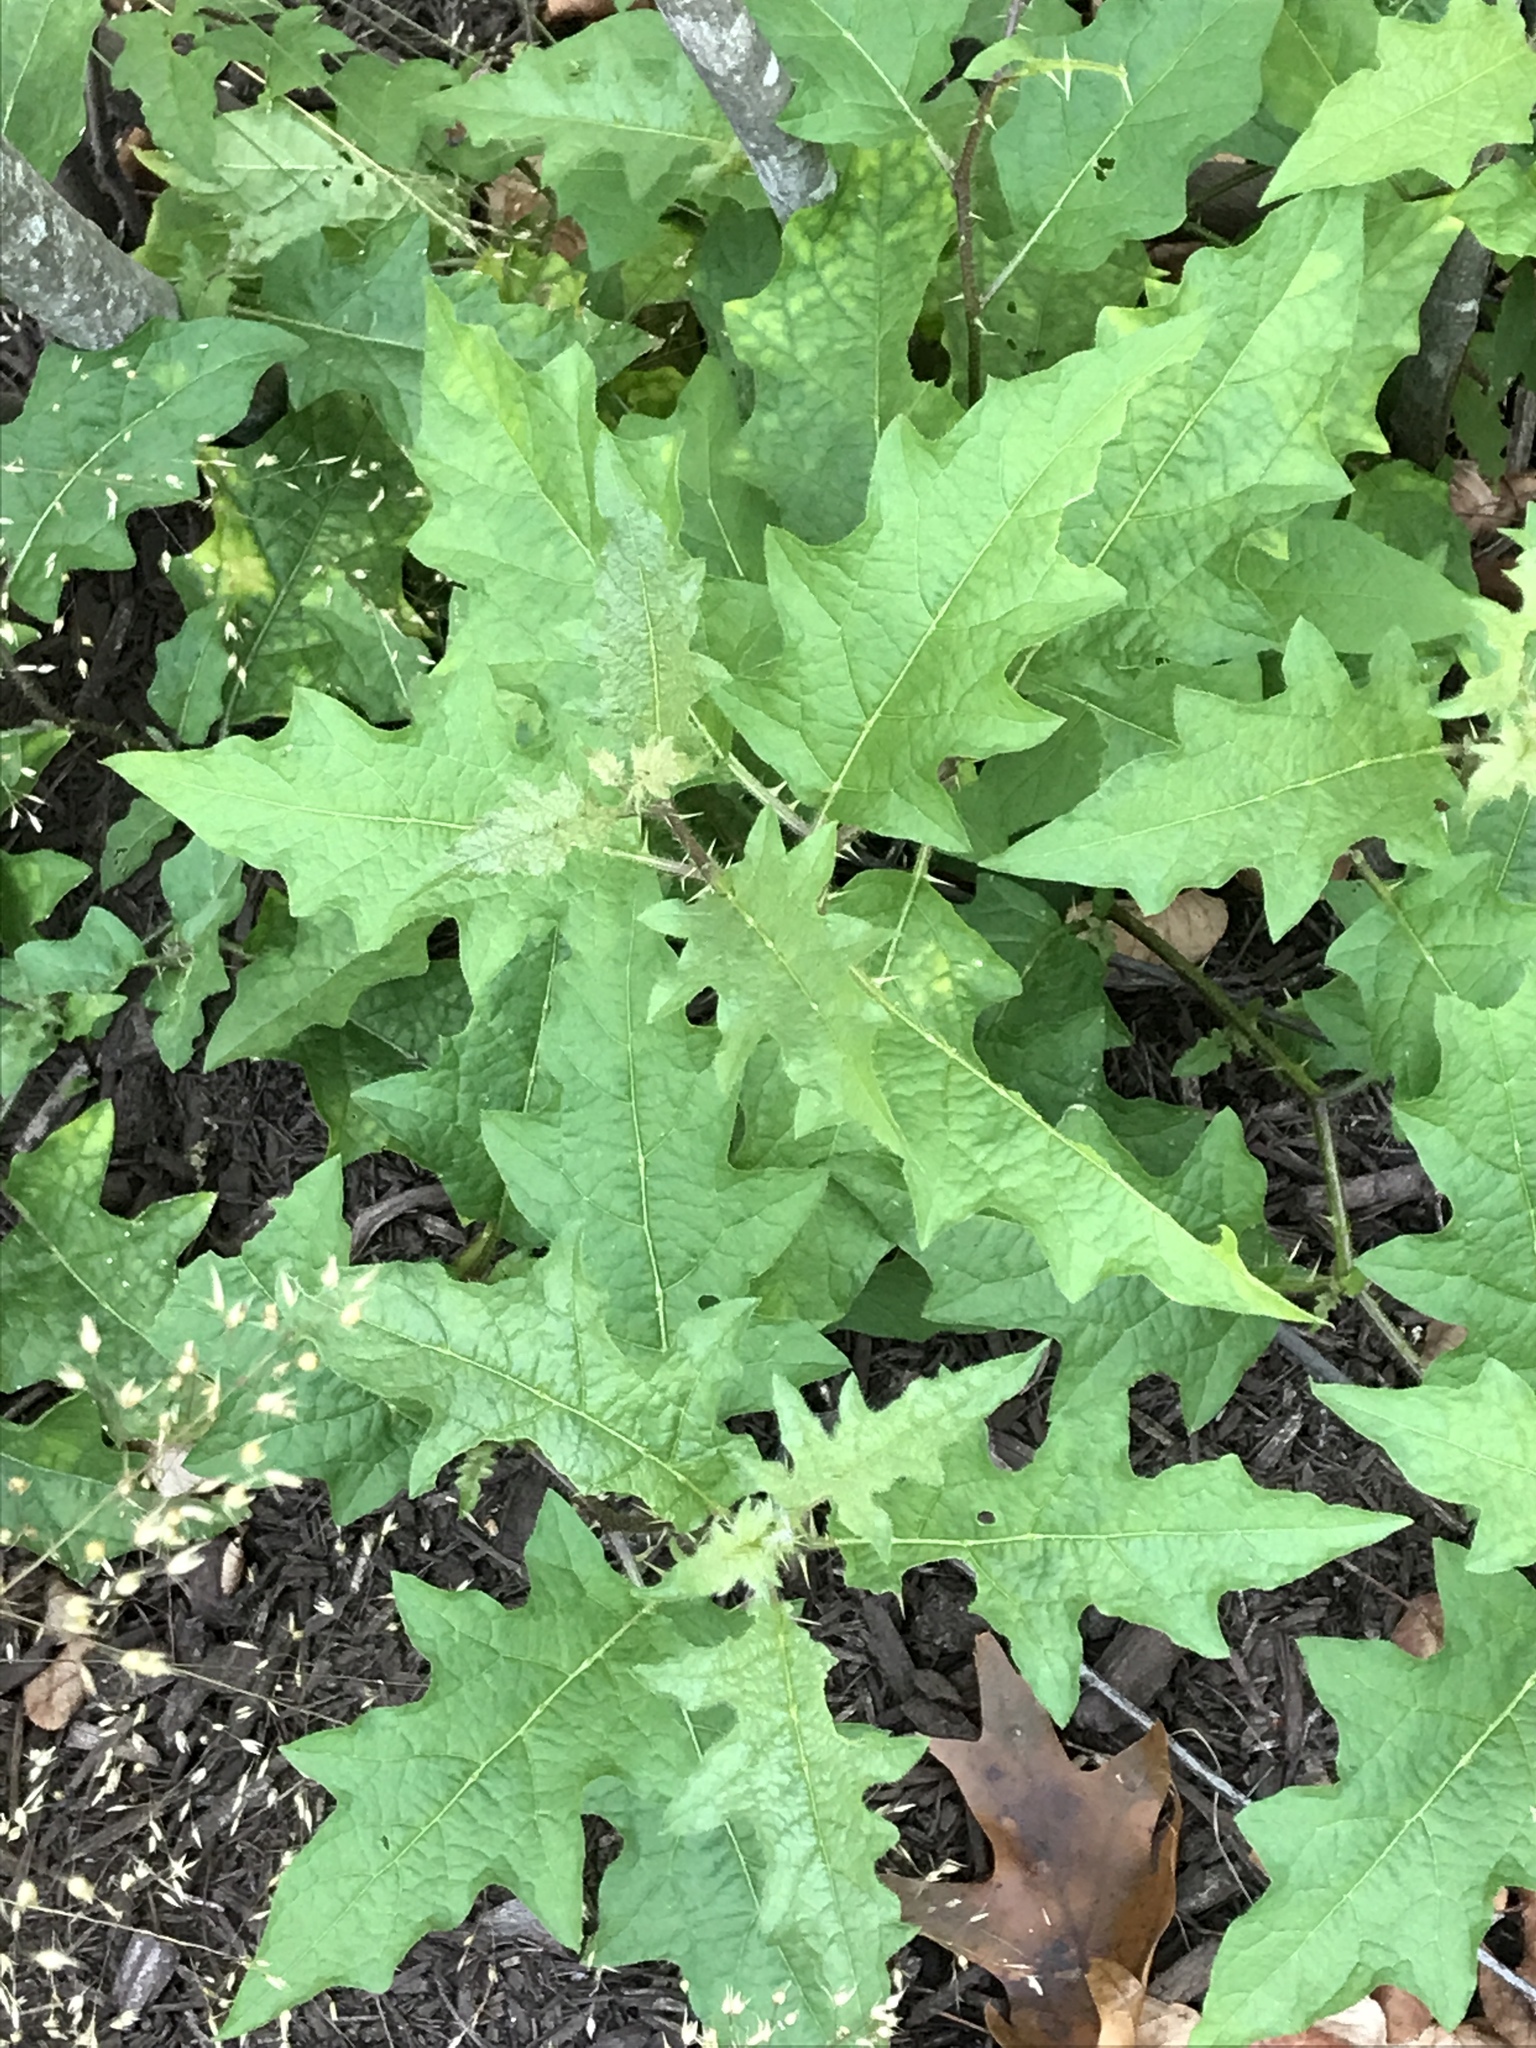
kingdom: Plantae
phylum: Tracheophyta
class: Magnoliopsida
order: Solanales
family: Solanaceae
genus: Solanum
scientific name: Solanum carolinense
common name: Horse-nettle
